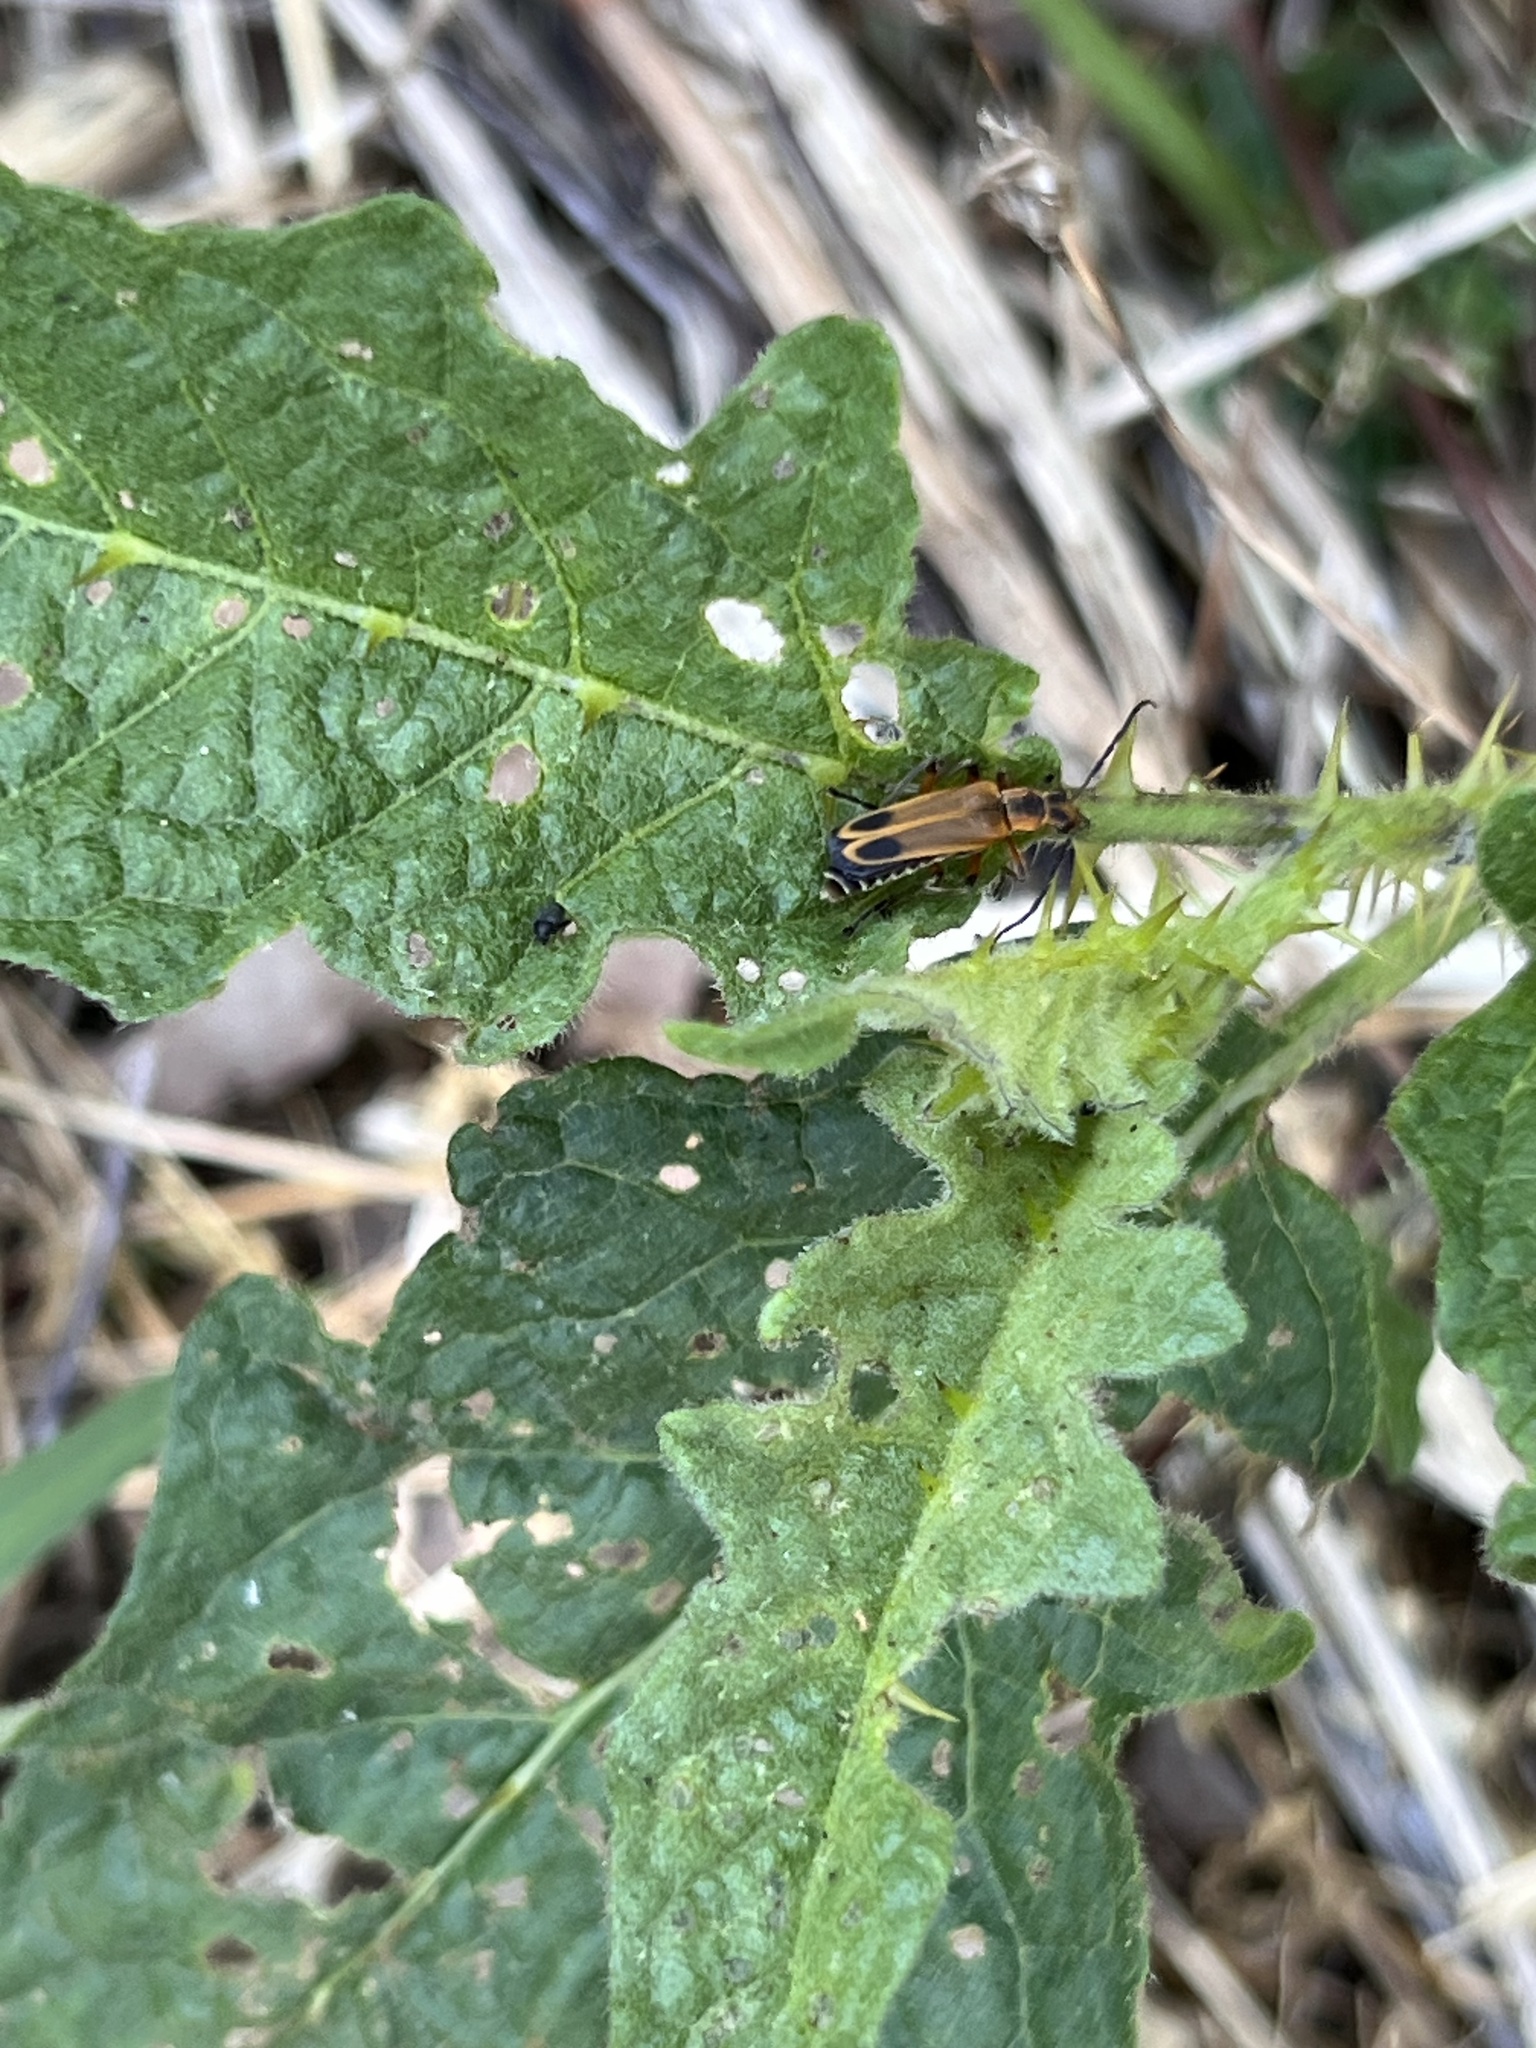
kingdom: Animalia
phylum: Arthropoda
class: Insecta
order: Coleoptera
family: Cantharidae
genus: Chauliognathus
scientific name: Chauliognathus marginatus
